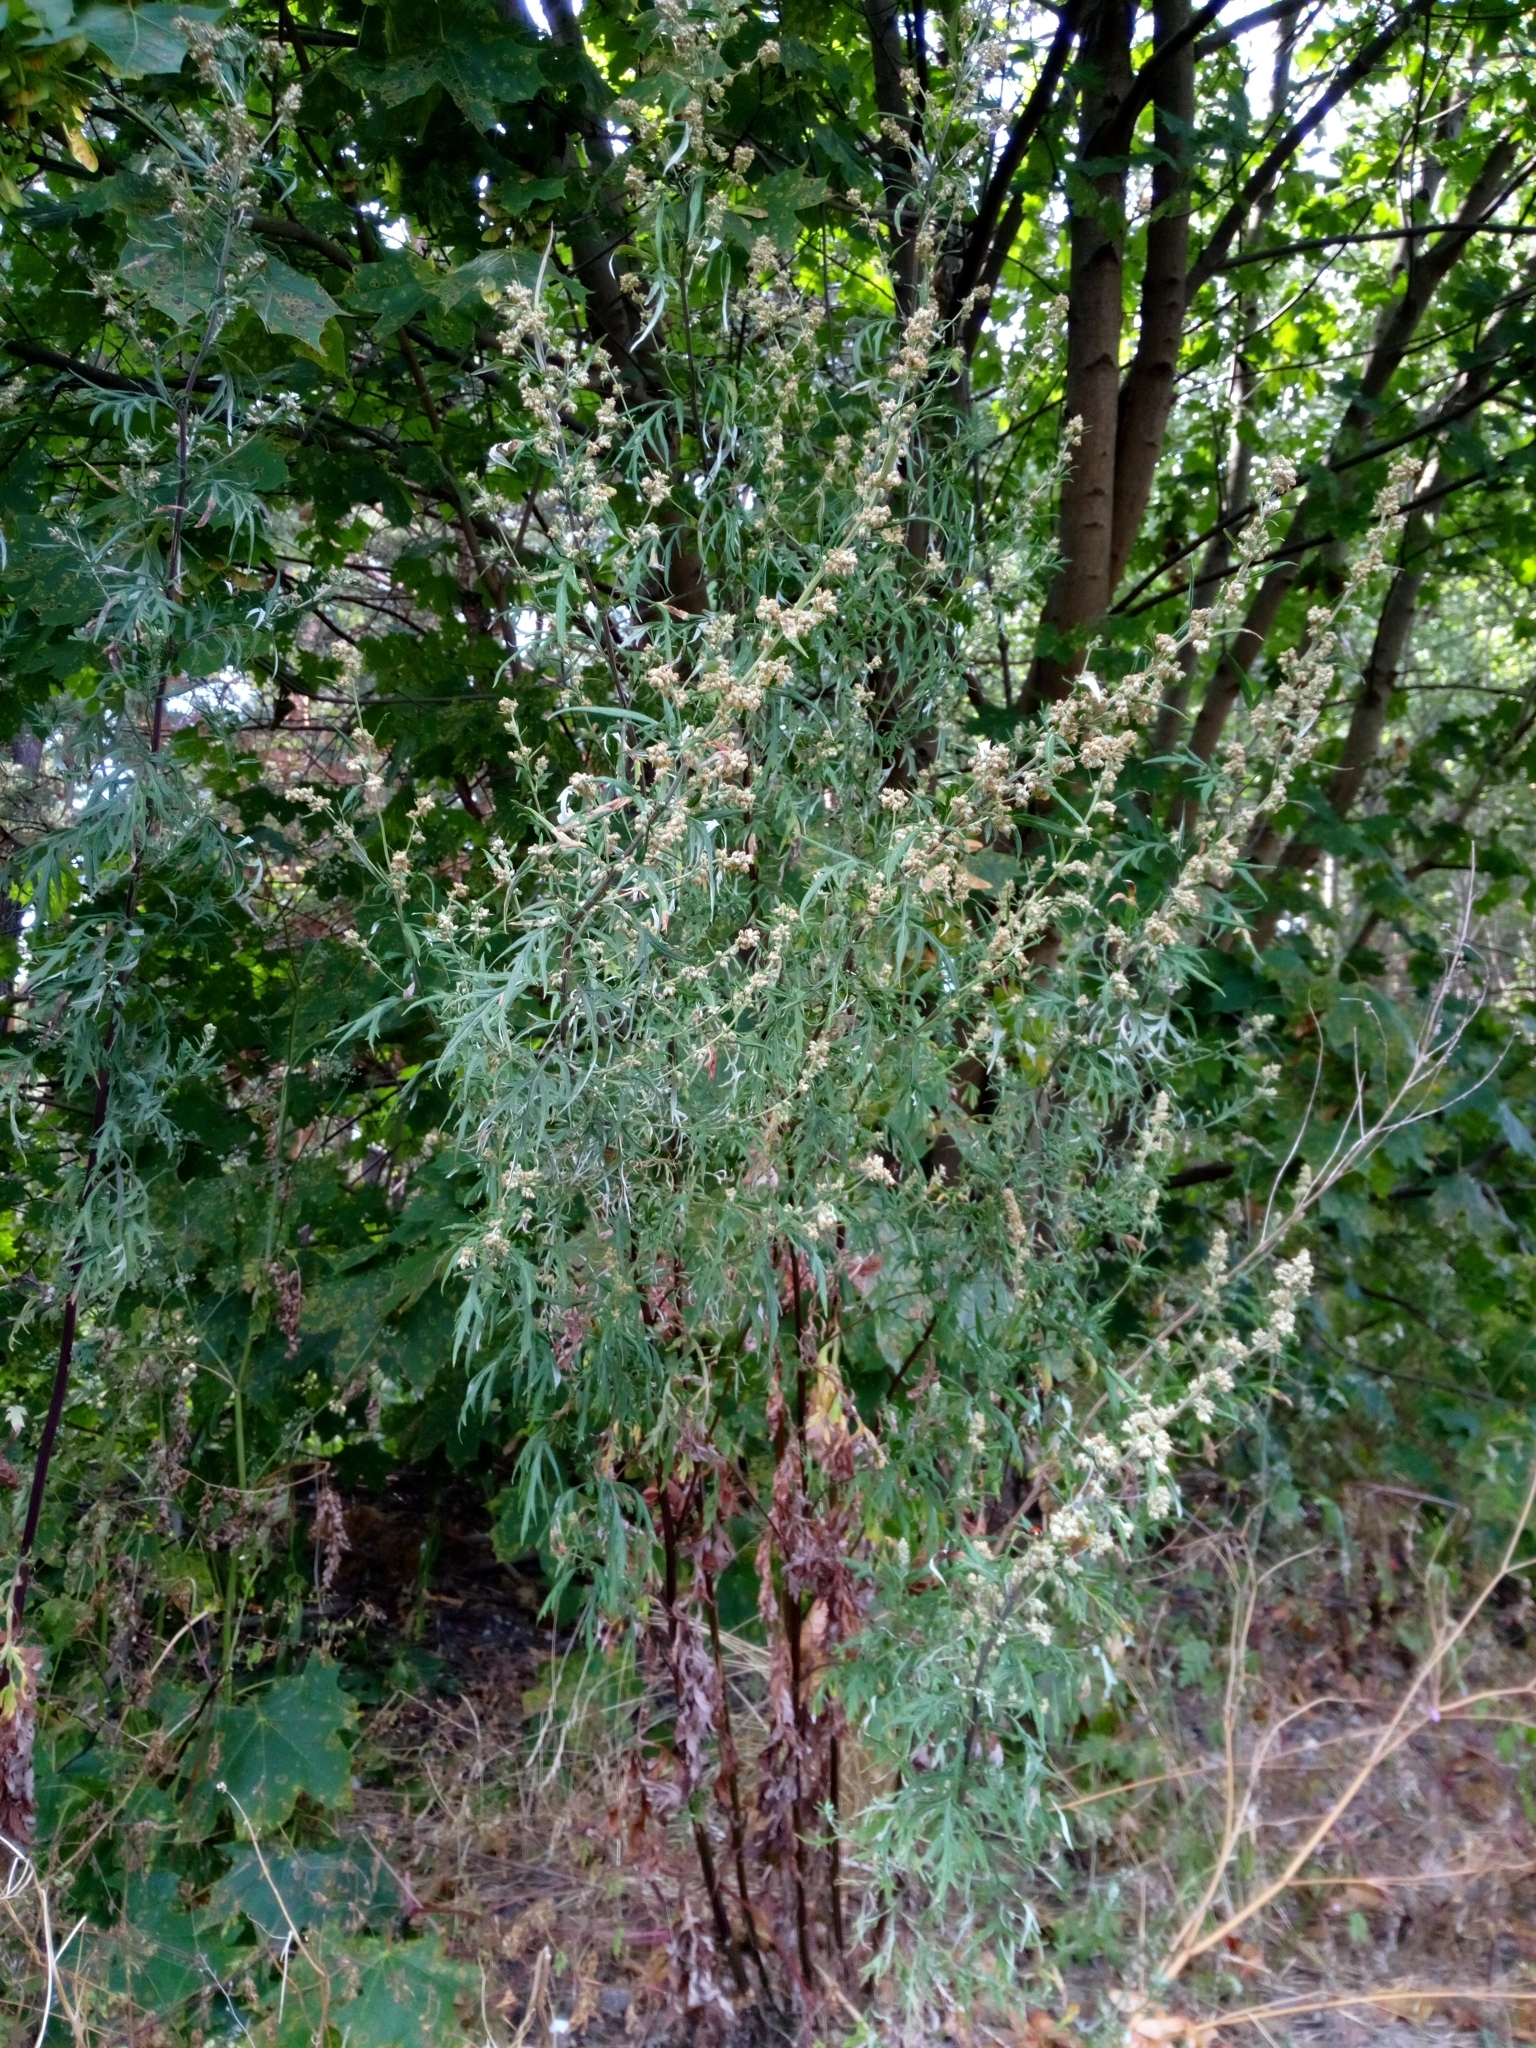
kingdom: Plantae
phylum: Tracheophyta
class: Magnoliopsida
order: Asterales
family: Asteraceae
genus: Artemisia
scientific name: Artemisia vulgaris
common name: Mugwort
